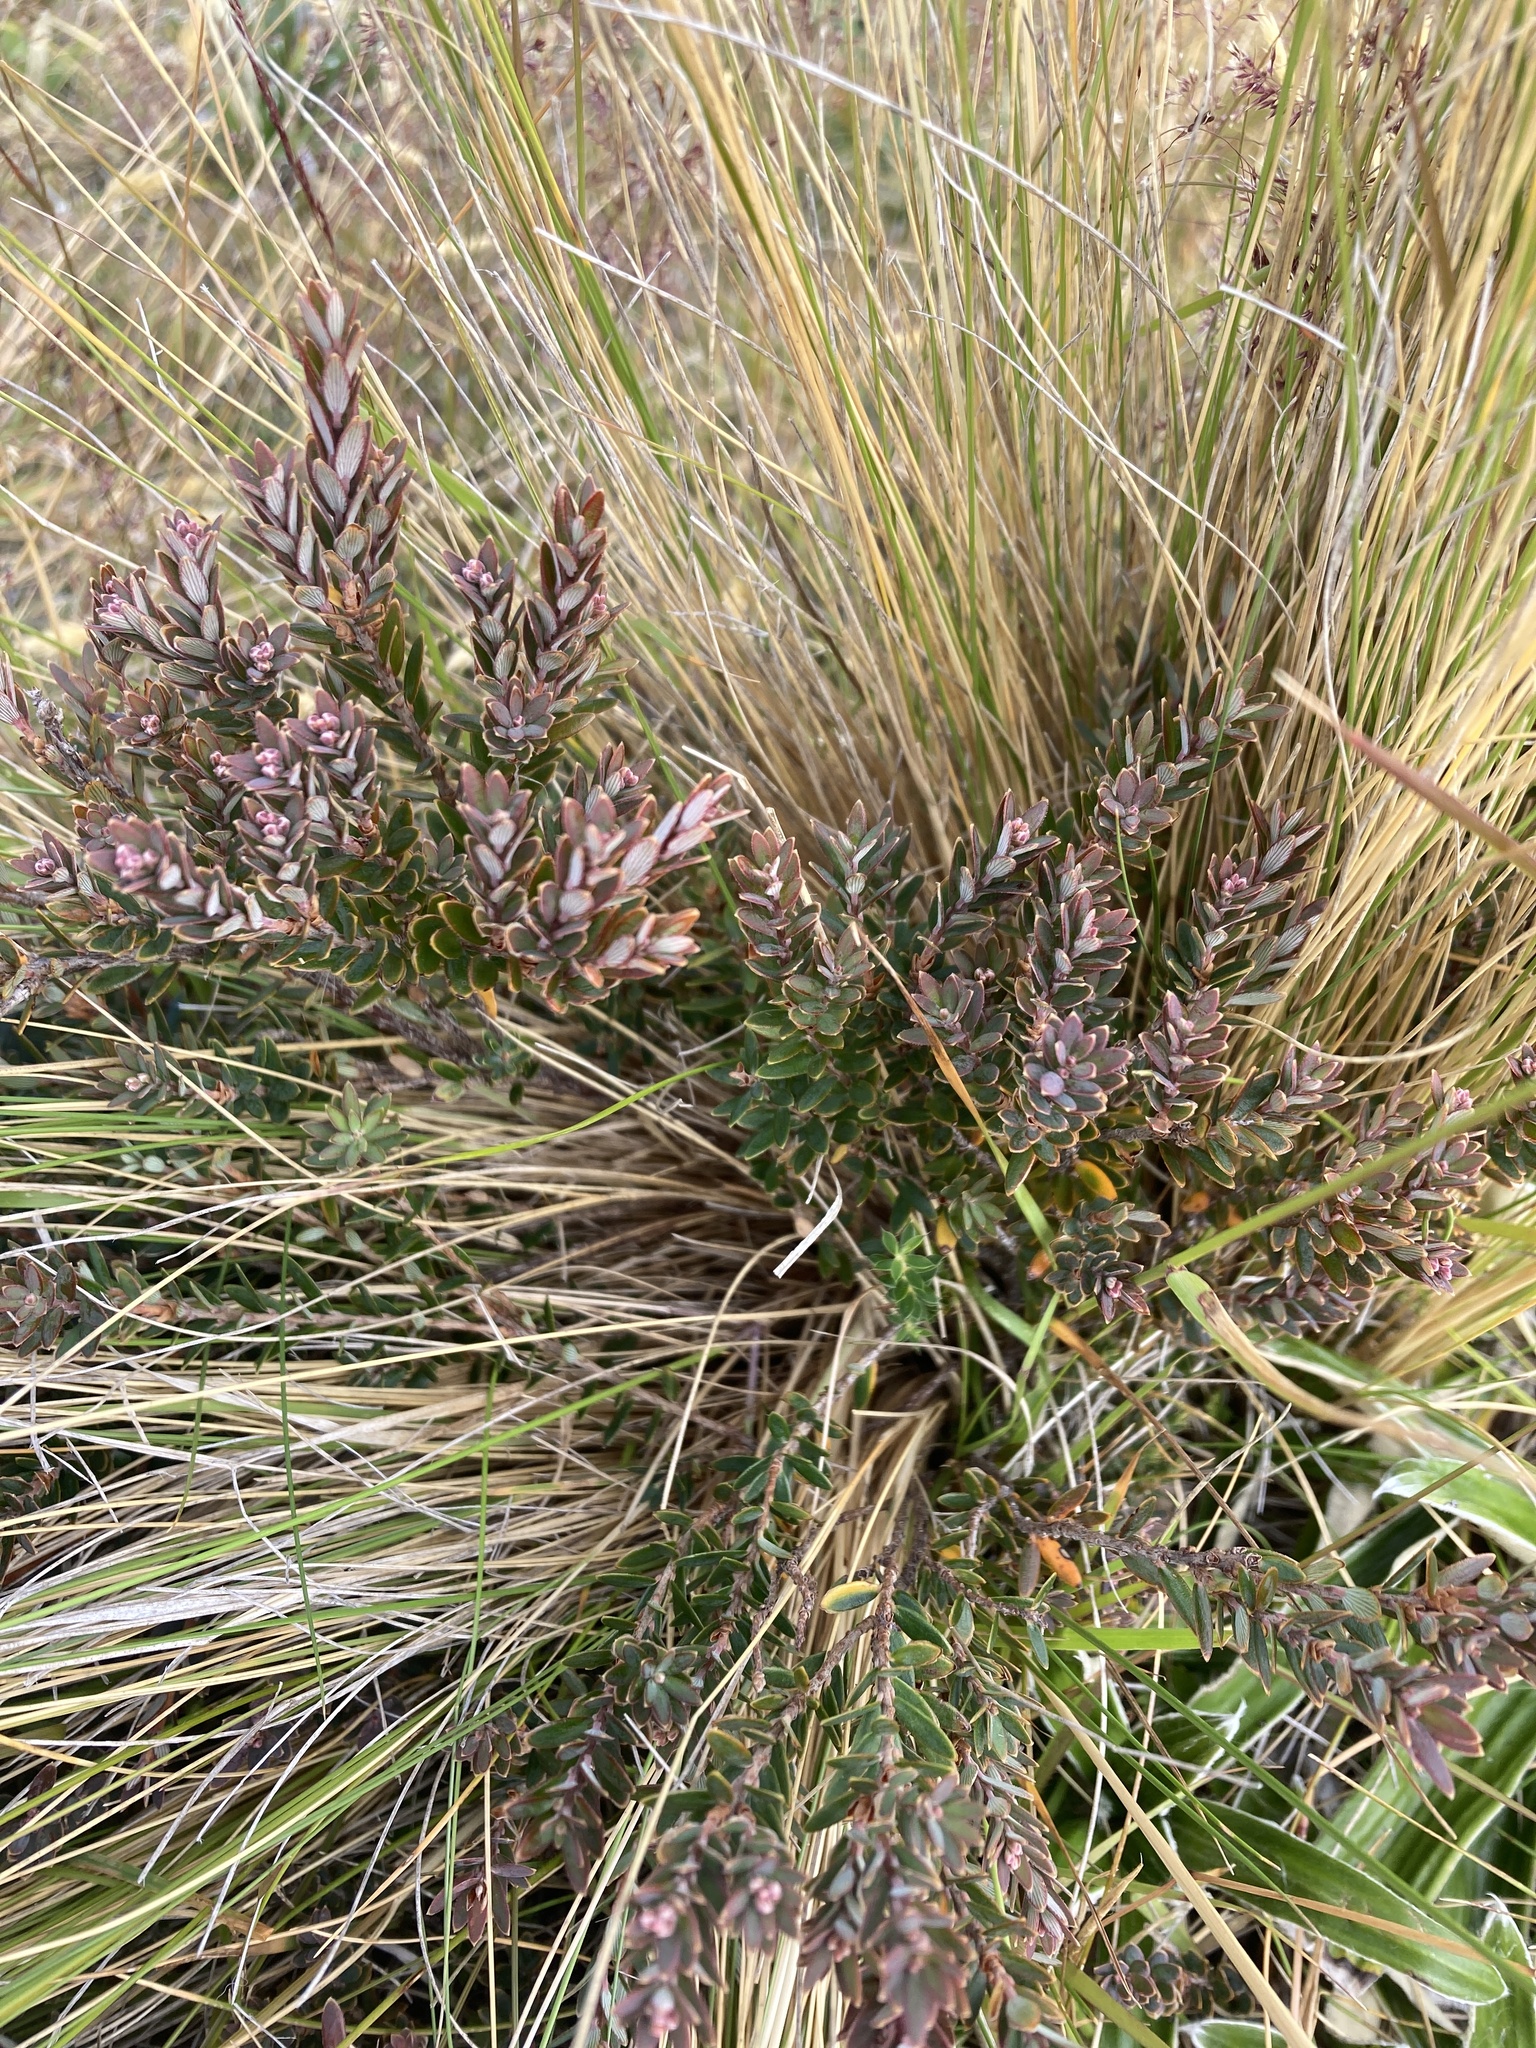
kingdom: Plantae
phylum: Tracheophyta
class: Magnoliopsida
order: Ericales
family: Ericaceae
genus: Acrothamnus
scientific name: Acrothamnus colensoi
